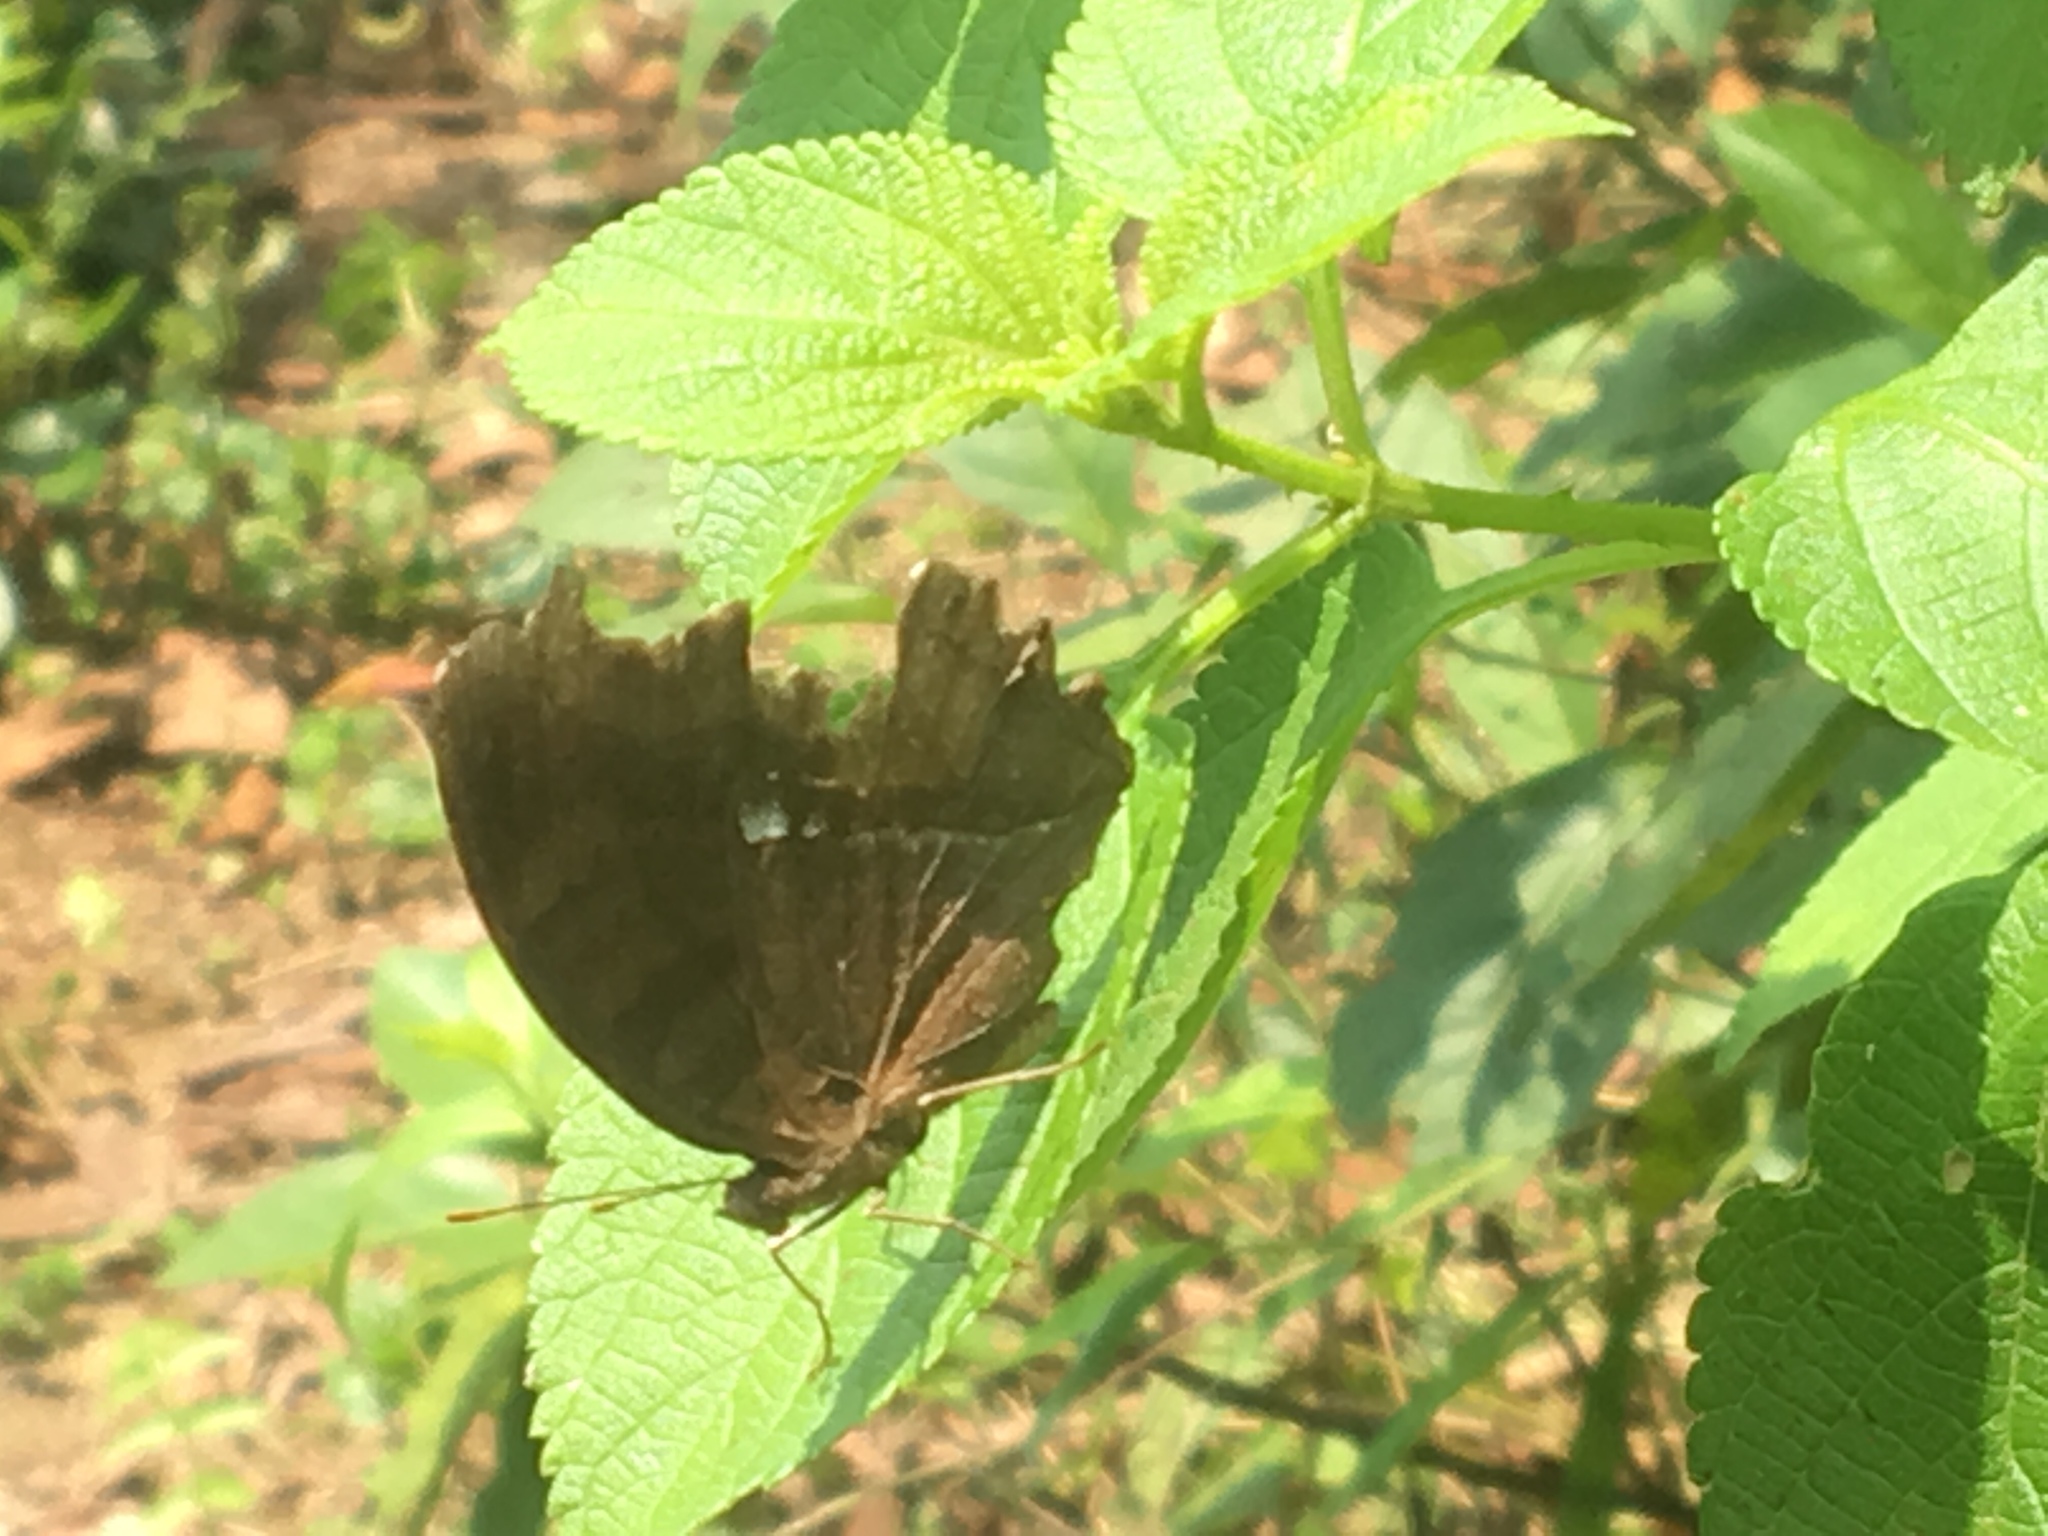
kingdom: Animalia
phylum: Arthropoda
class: Insecta
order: Lepidoptera
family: Nymphalidae
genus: Junonia
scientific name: Junonia iphita
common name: Chocolate pansy
